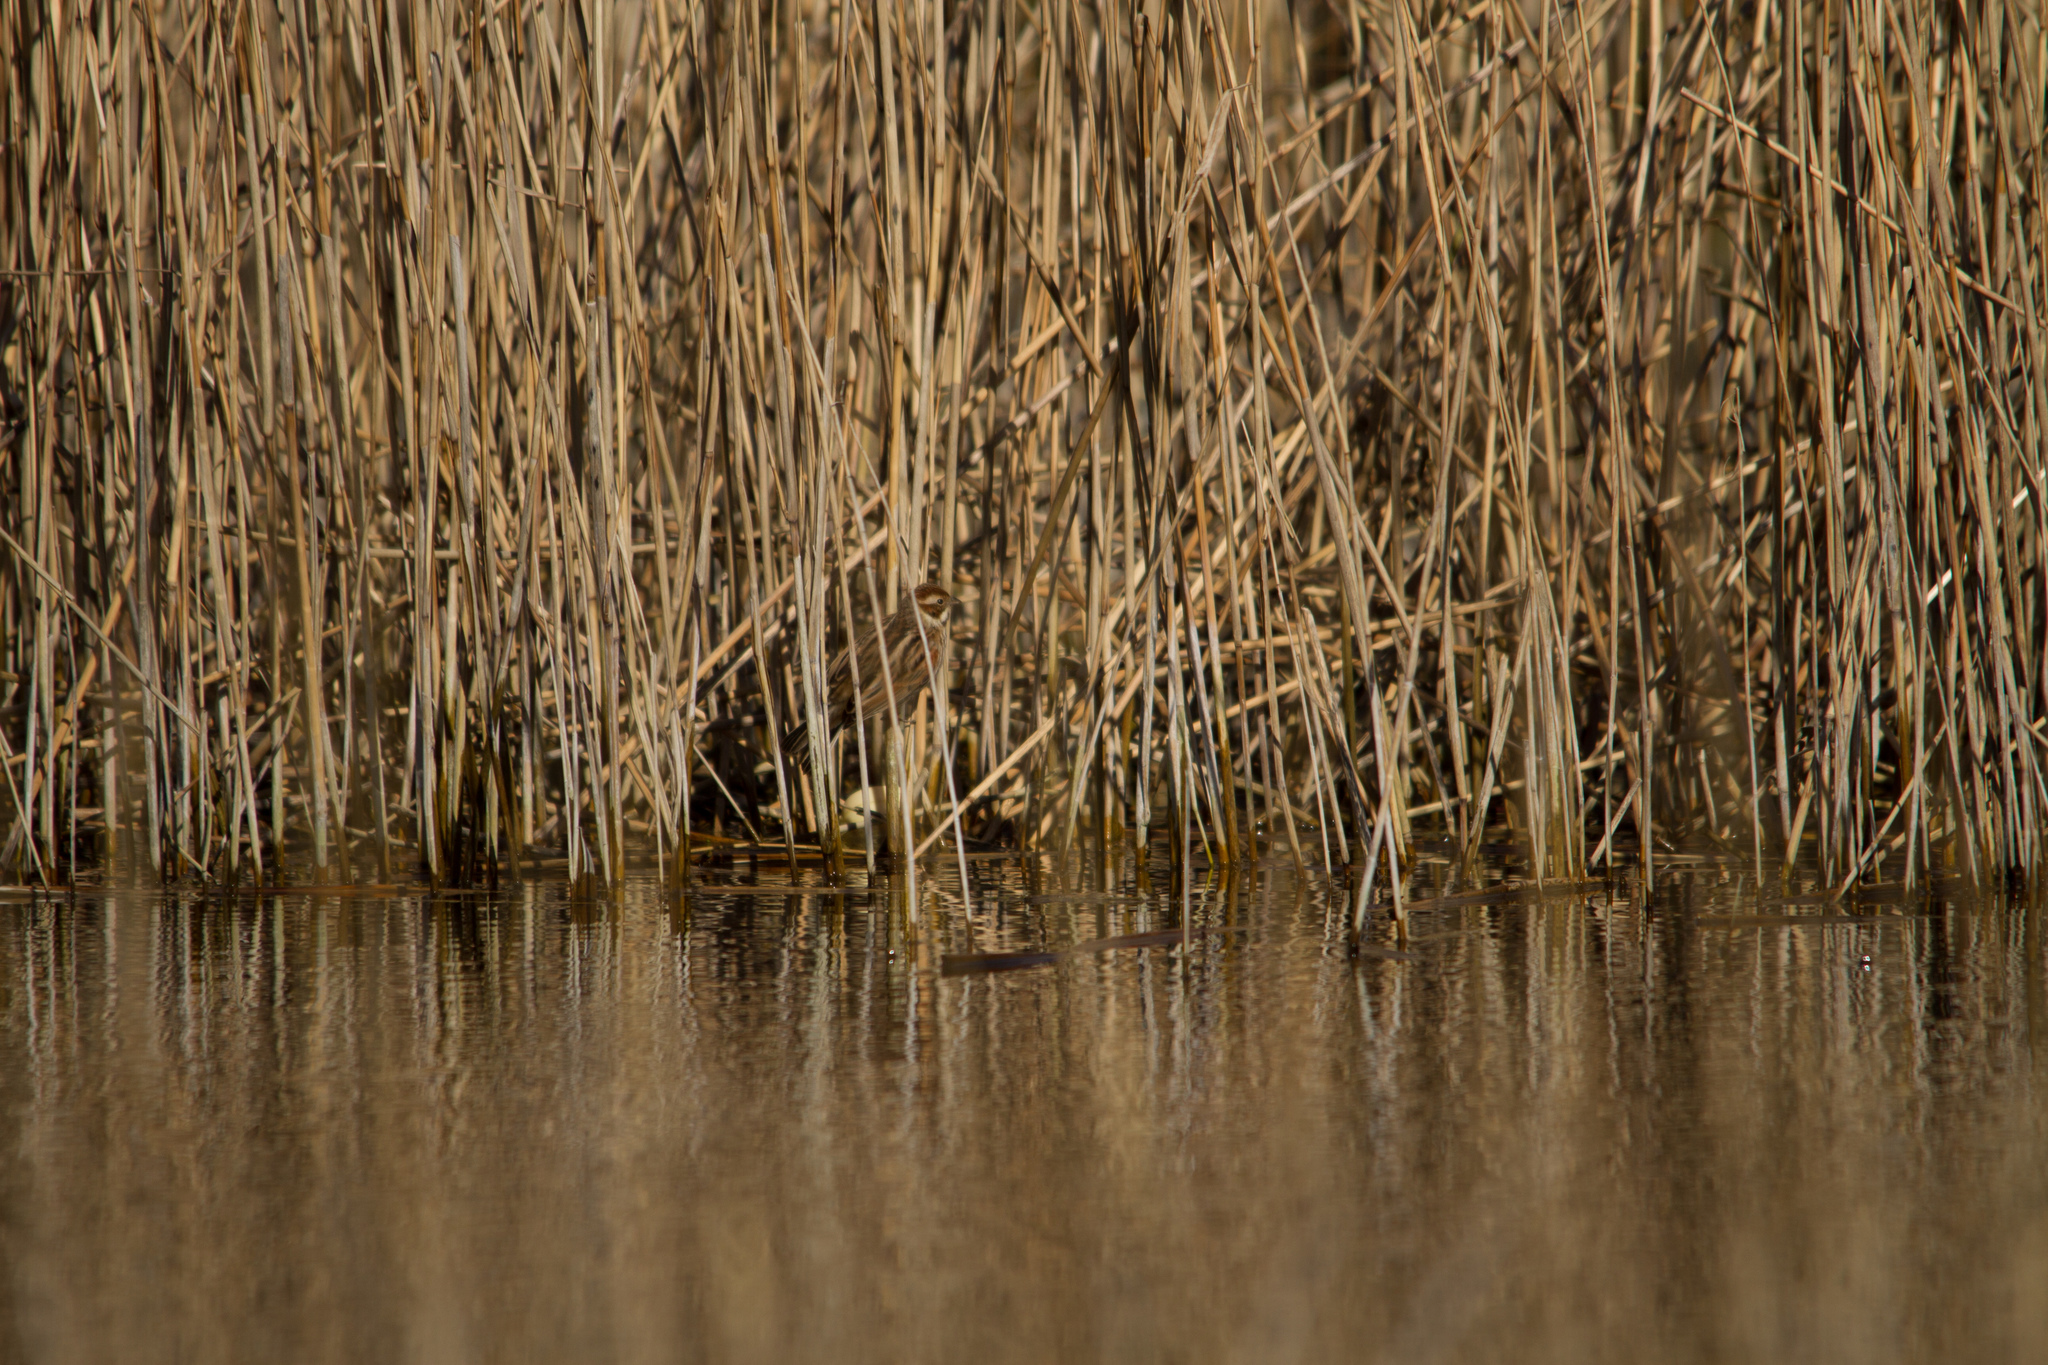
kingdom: Animalia
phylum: Chordata
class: Aves
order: Passeriformes
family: Emberizidae
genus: Emberiza
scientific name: Emberiza schoeniclus
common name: Reed bunting
